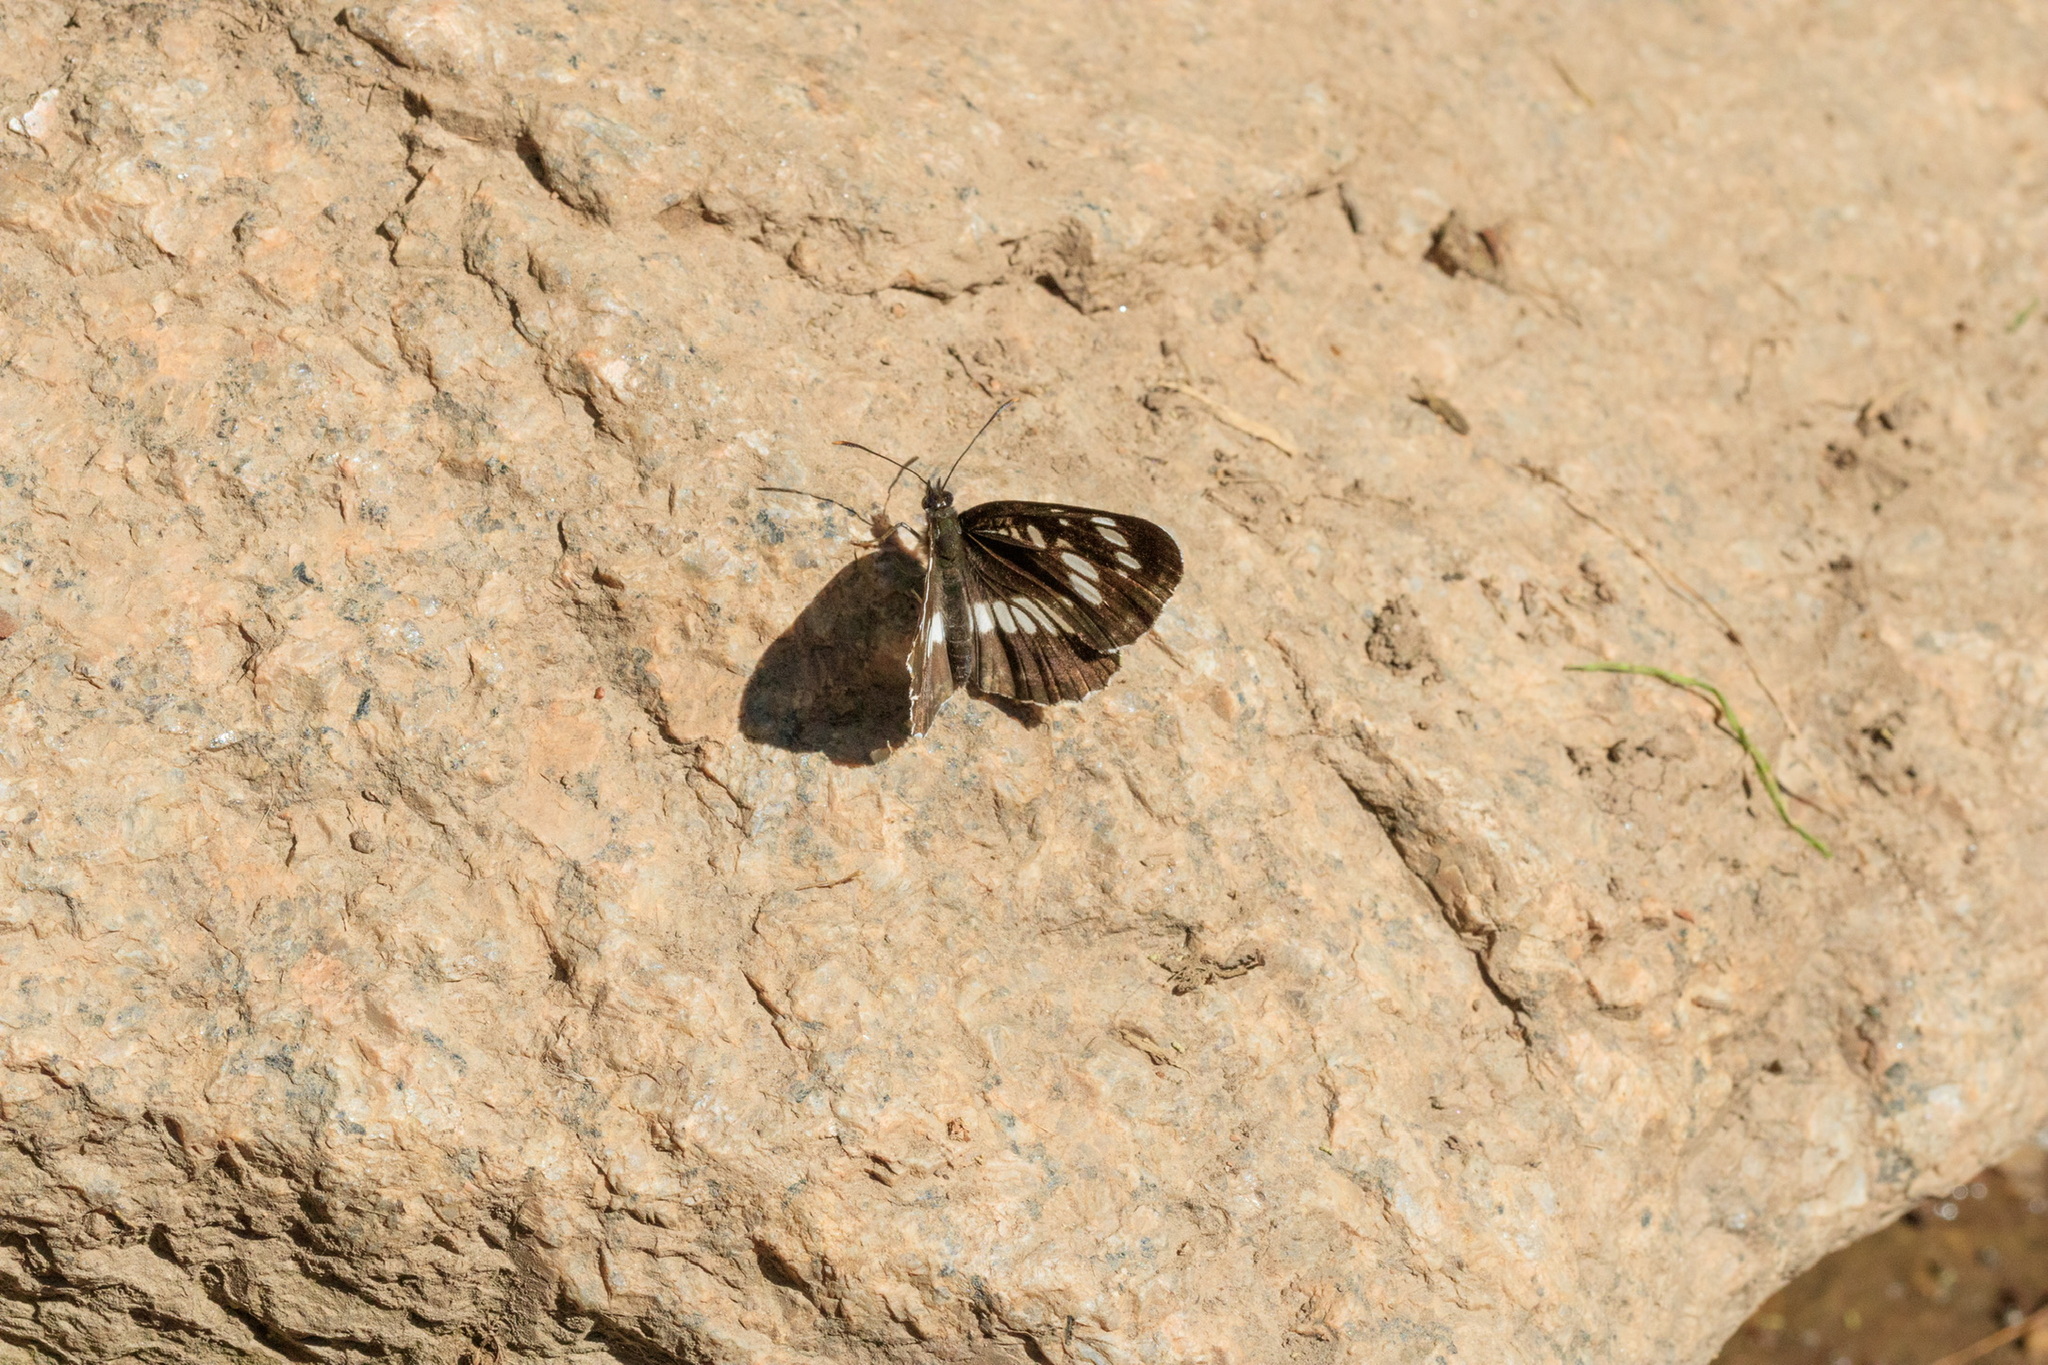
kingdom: Animalia
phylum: Arthropoda
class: Insecta
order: Lepidoptera
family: Nymphalidae
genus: Neptis
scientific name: Neptis rivularis
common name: Hungarian glider
